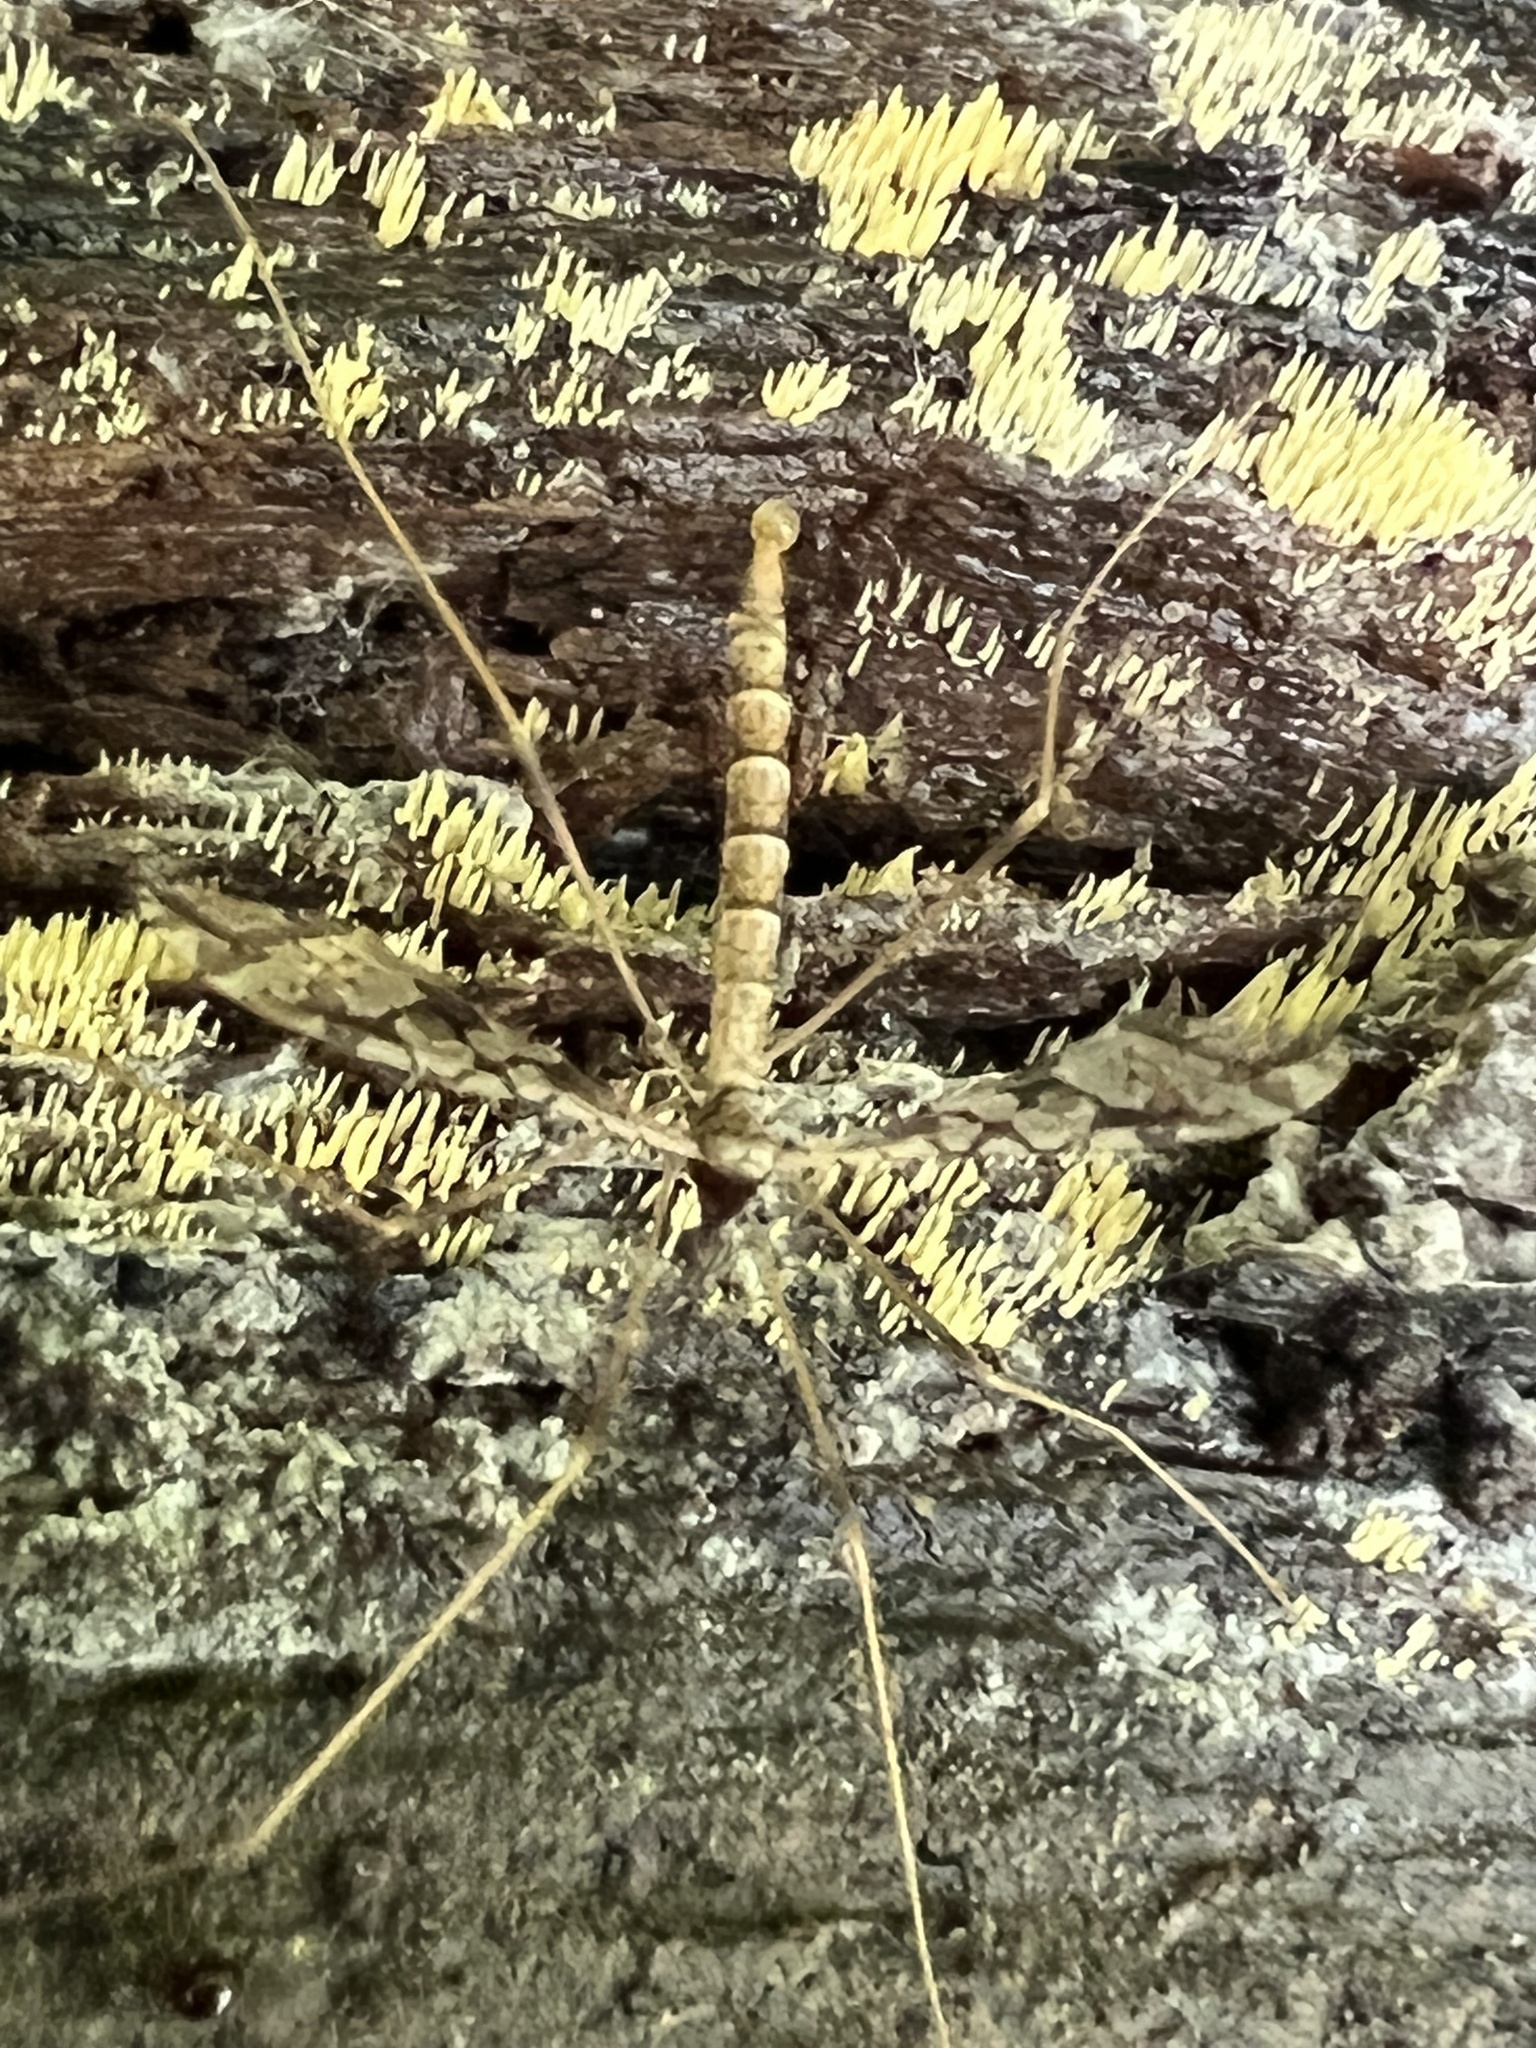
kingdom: Animalia
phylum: Arthropoda
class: Insecta
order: Diptera
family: Limoniidae
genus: Epiphragma
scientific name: Epiphragma solatrix
